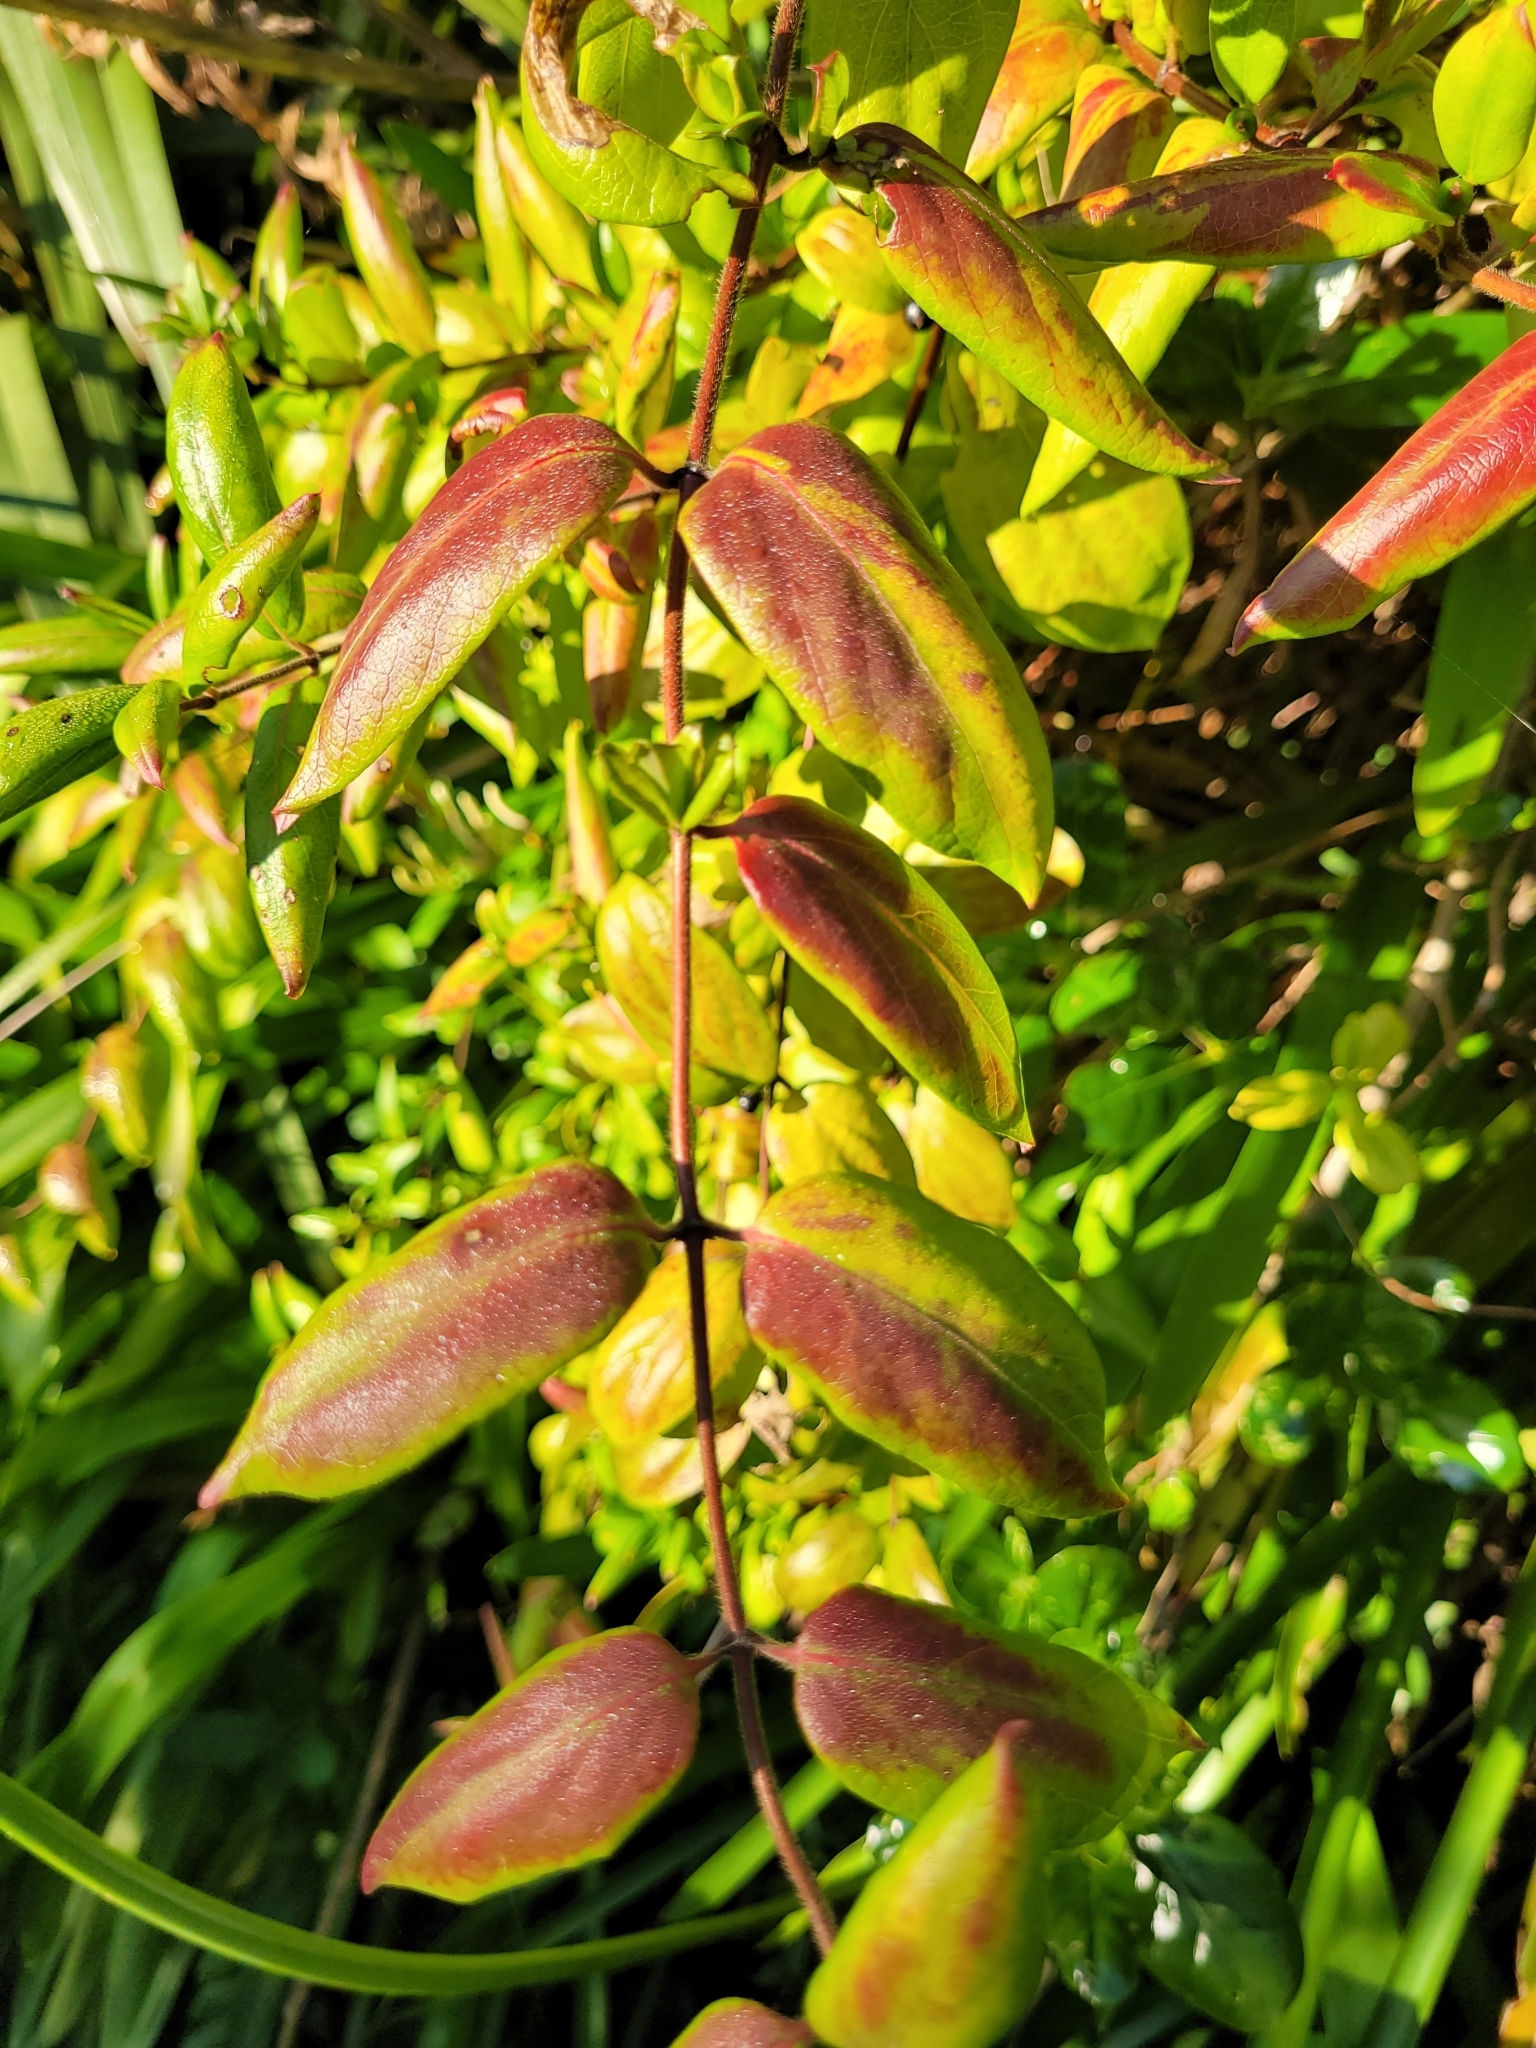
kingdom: Plantae
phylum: Tracheophyta
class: Magnoliopsida
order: Dipsacales
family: Caprifoliaceae
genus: Lonicera
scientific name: Lonicera japonica
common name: Japanese honeysuckle
